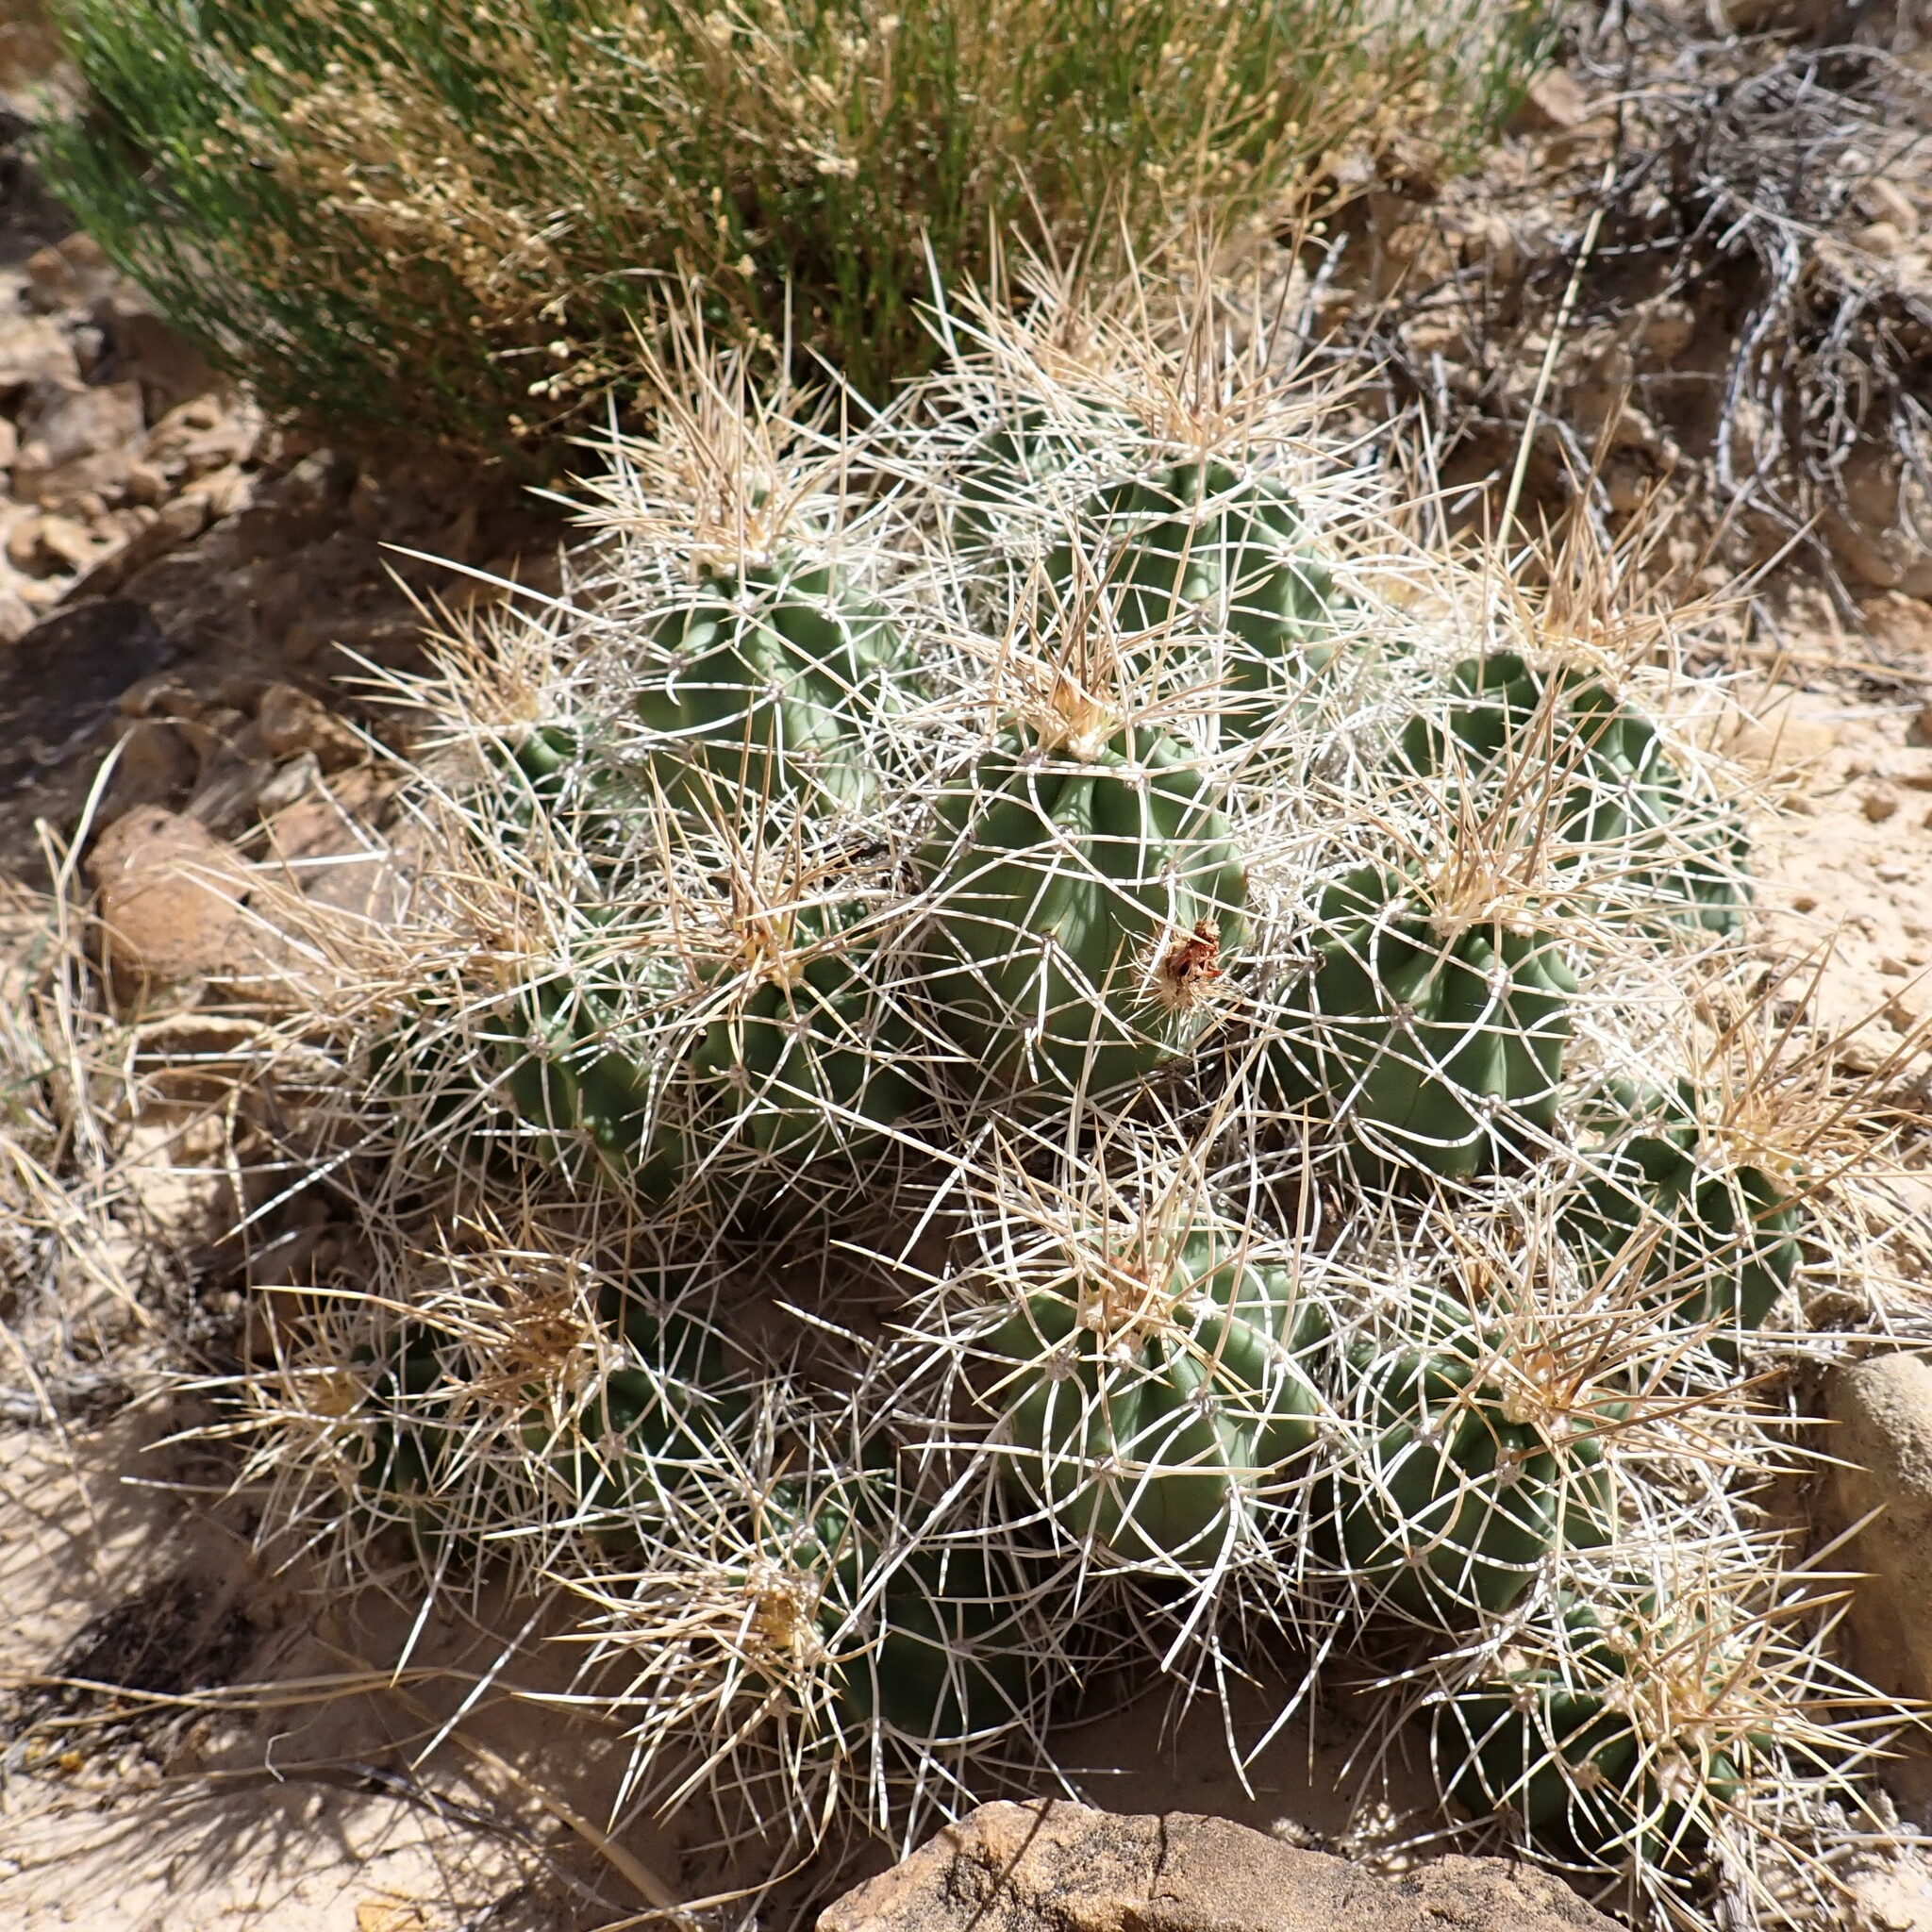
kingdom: Plantae
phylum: Tracheophyta
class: Magnoliopsida
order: Caryophyllales
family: Cactaceae
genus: Echinocereus
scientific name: Echinocereus triglochidiatus
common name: Claretcup hedgehog
